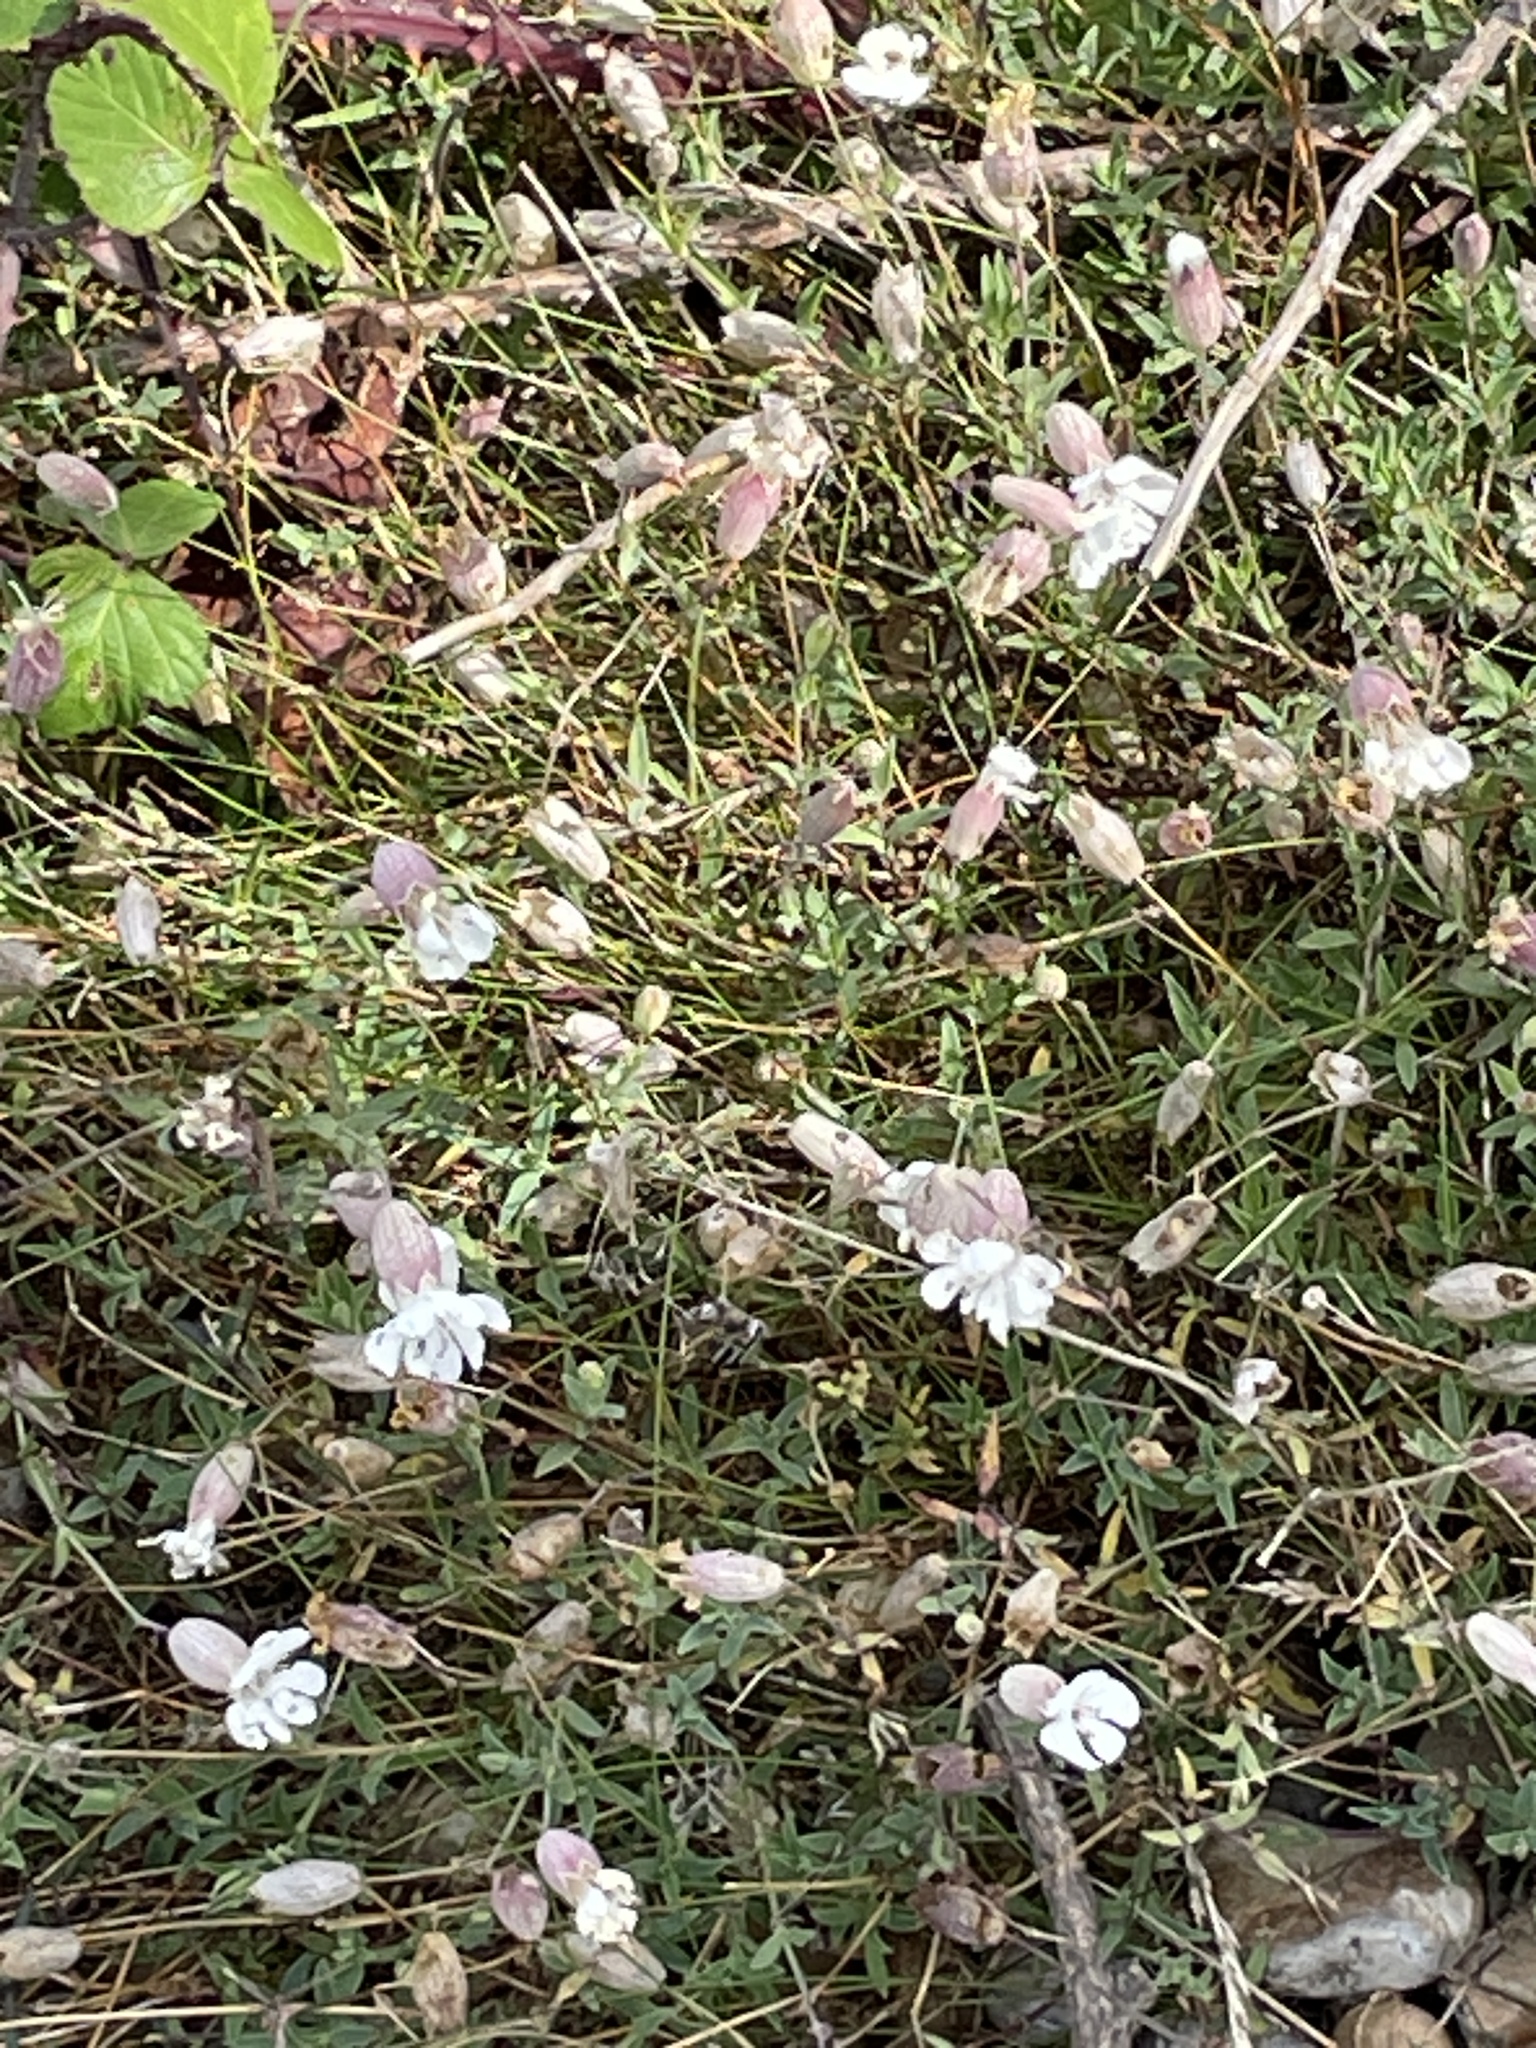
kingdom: Plantae
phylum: Tracheophyta
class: Magnoliopsida
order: Caryophyllales
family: Caryophyllaceae
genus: Silene
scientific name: Silene uniflora
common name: Sea campion
